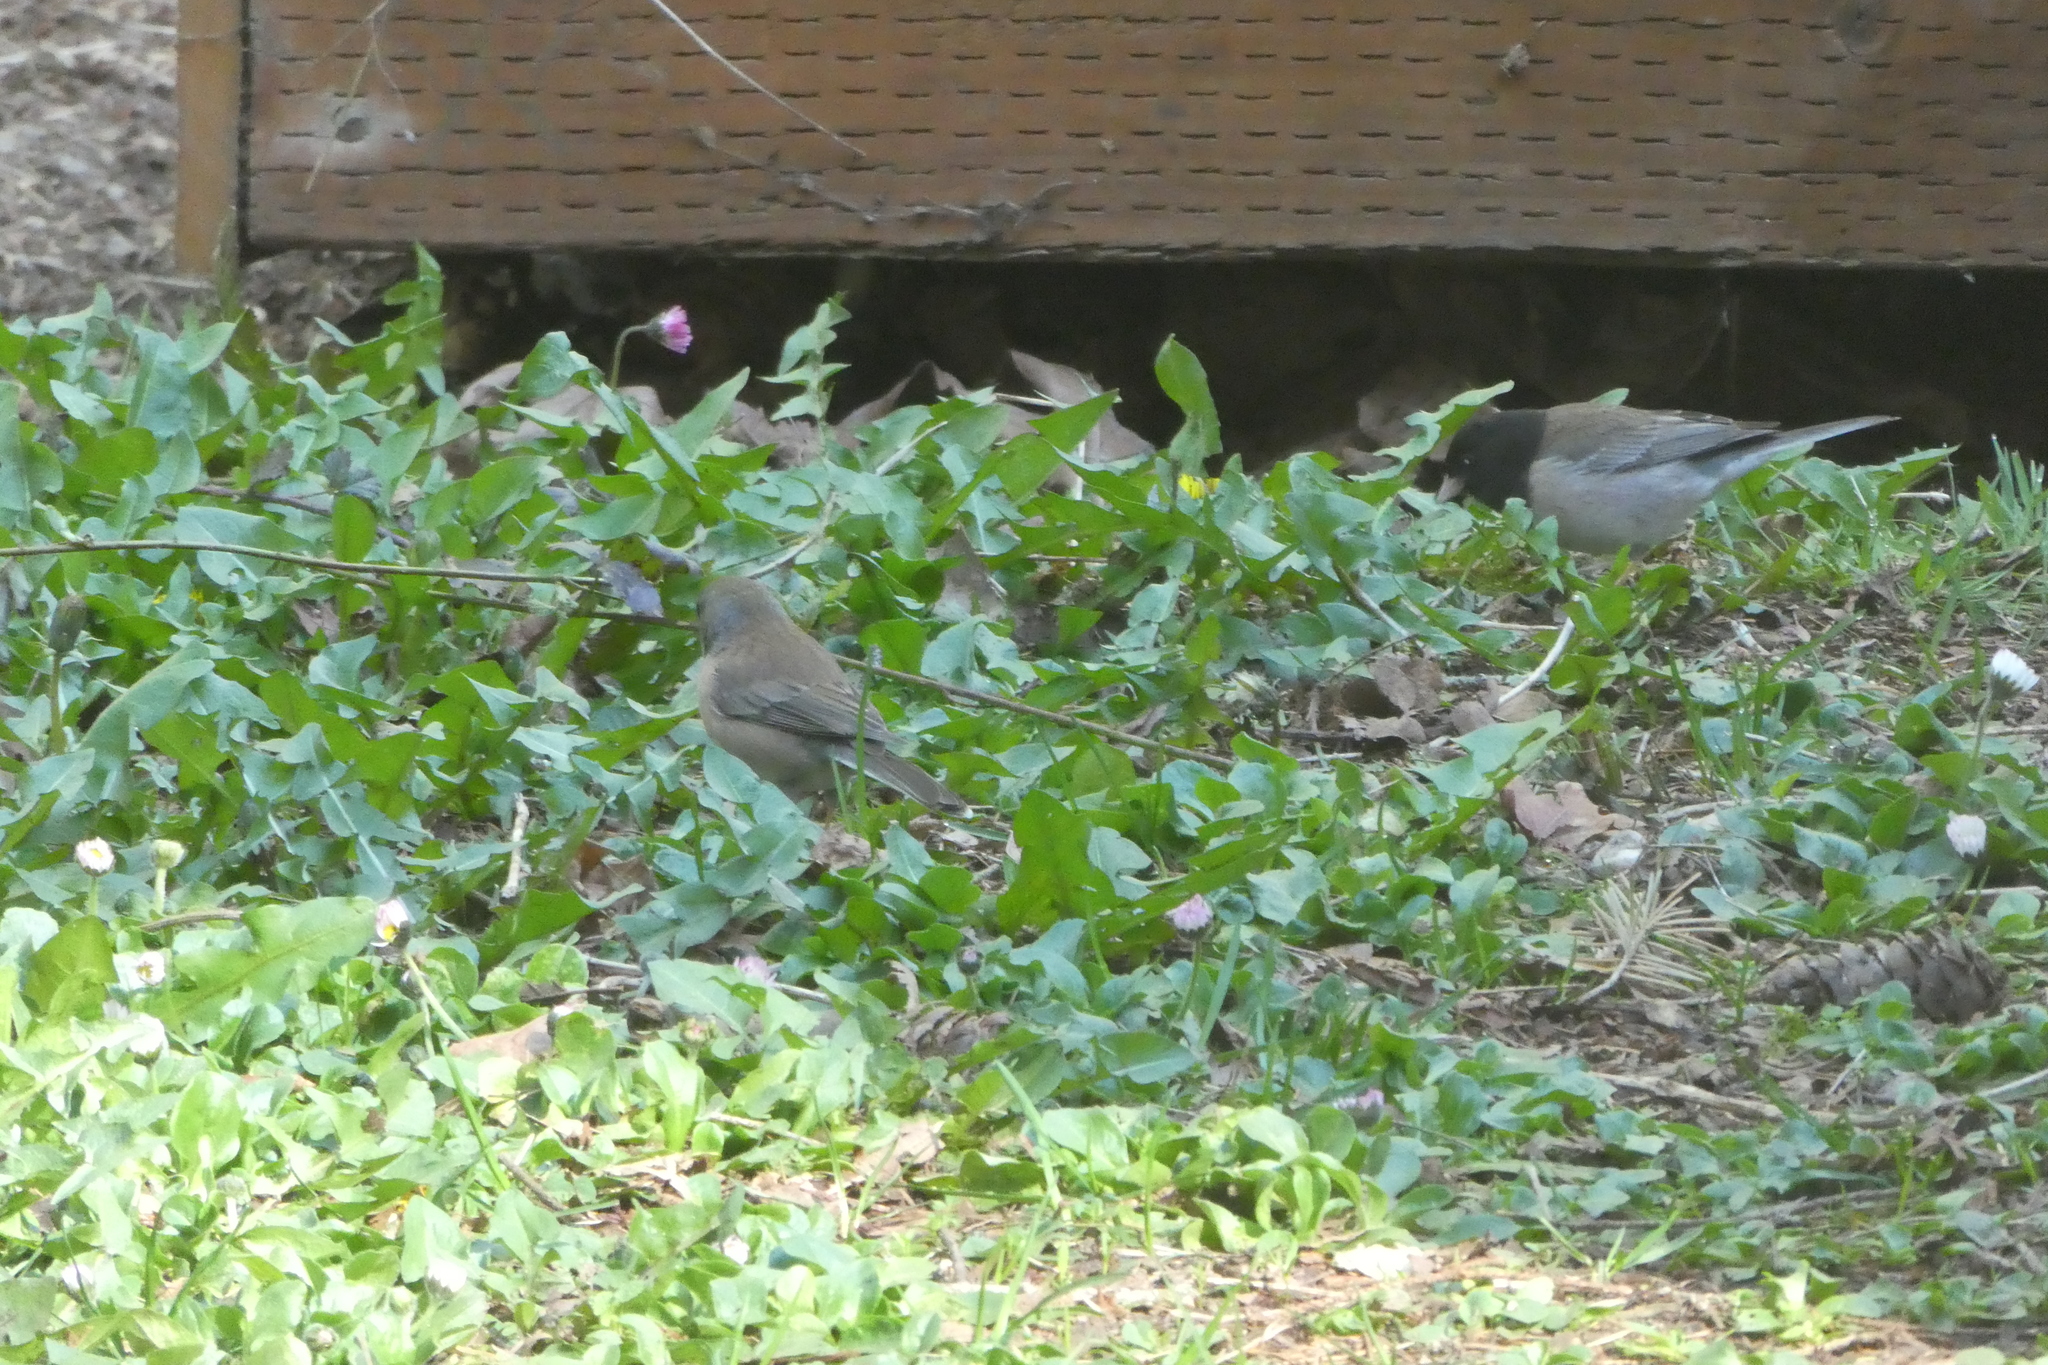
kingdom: Animalia
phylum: Chordata
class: Aves
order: Passeriformes
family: Passerellidae
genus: Junco
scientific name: Junco hyemalis
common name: Dark-eyed junco
